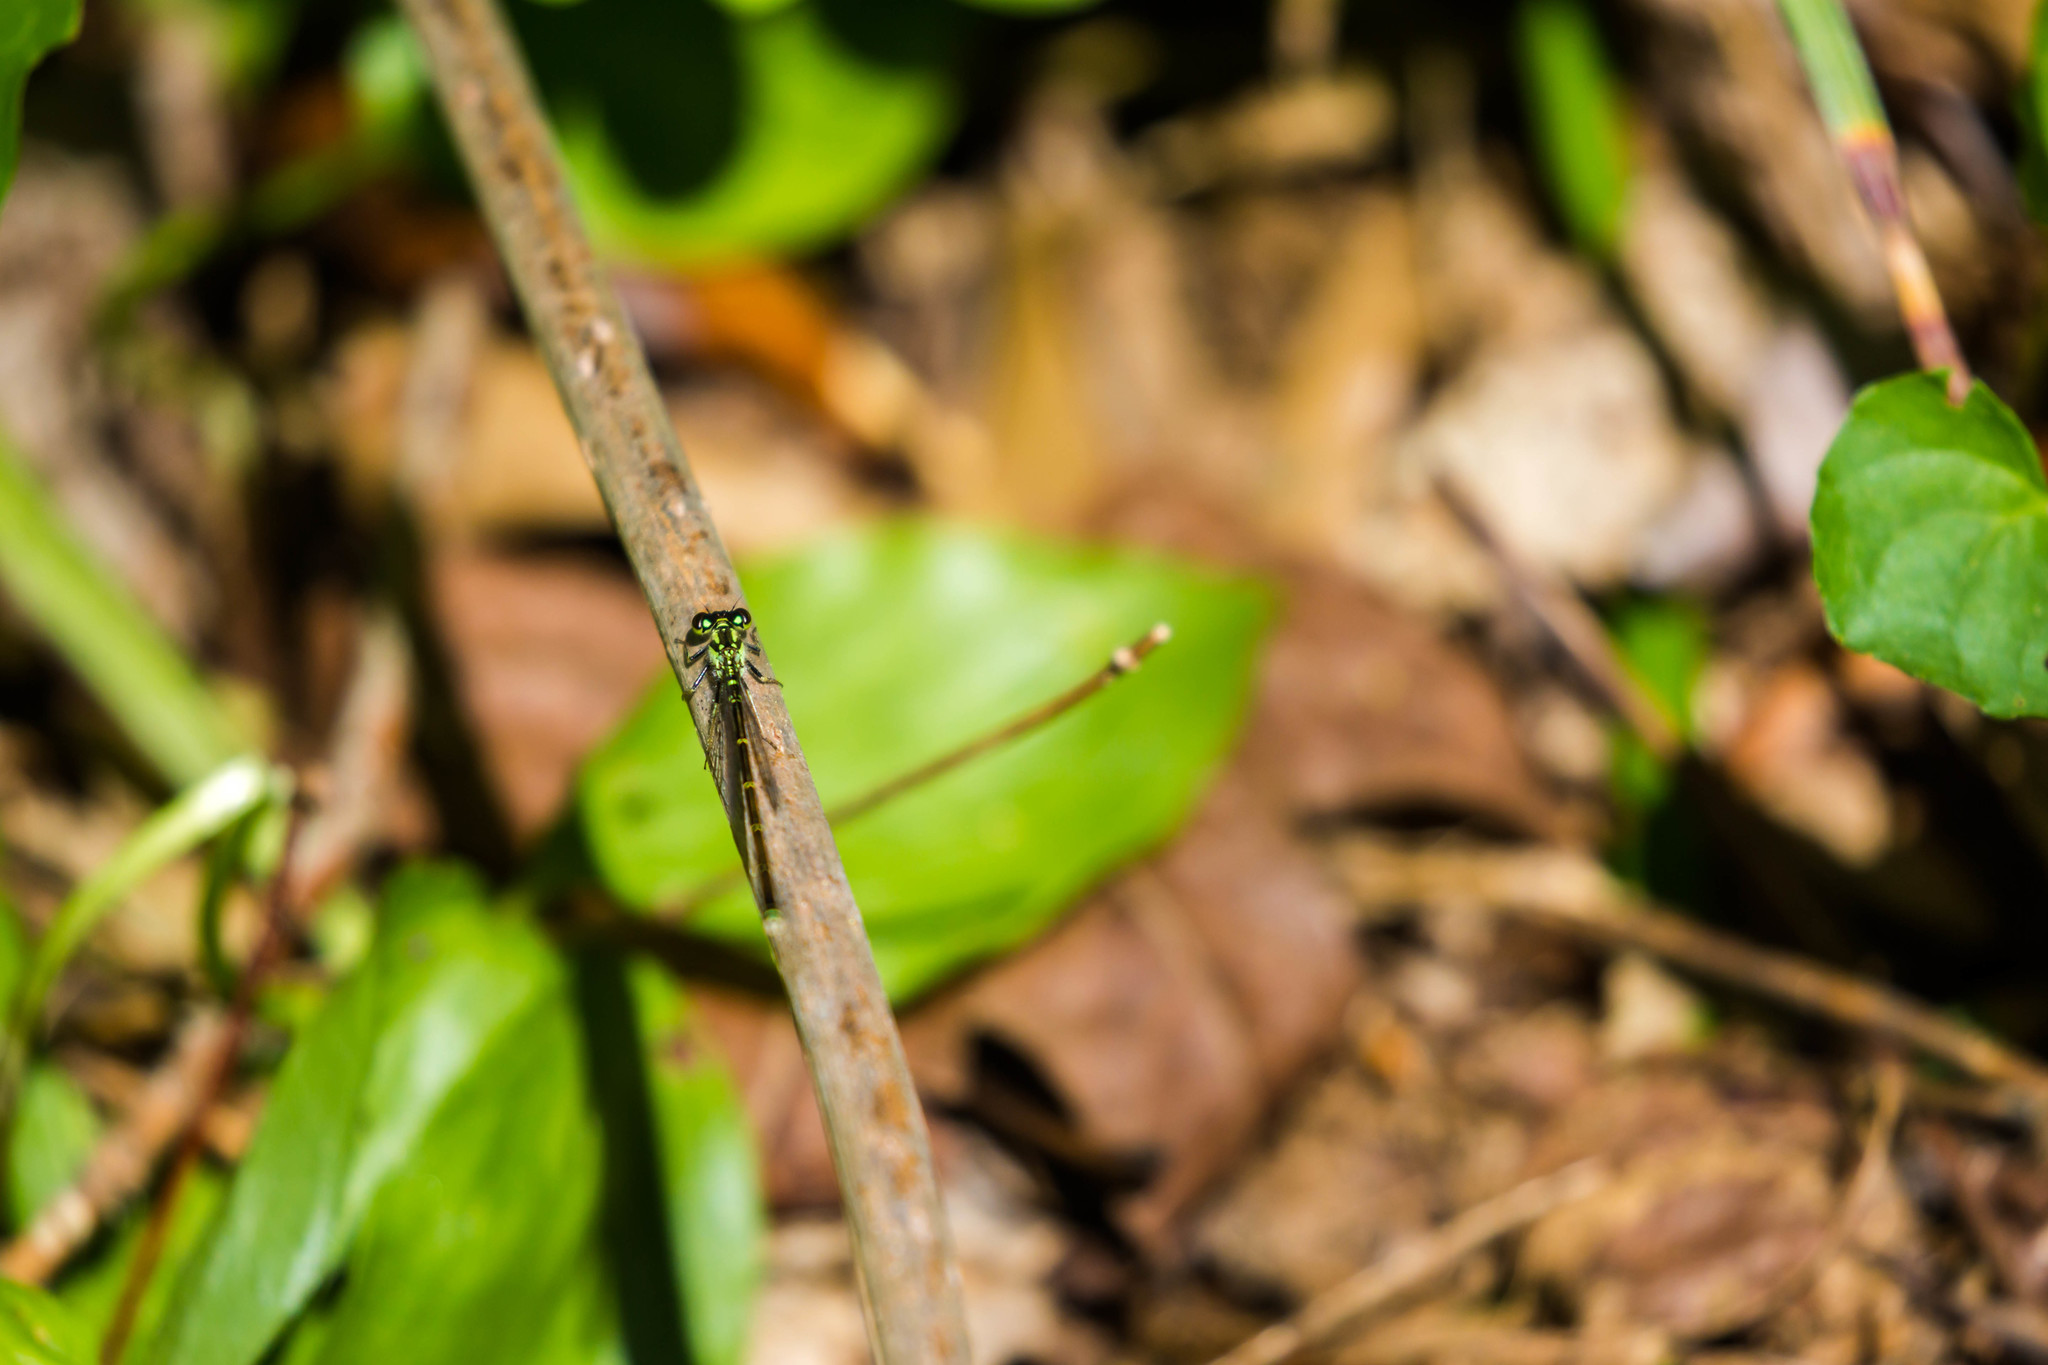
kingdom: Animalia
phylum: Arthropoda
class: Insecta
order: Odonata
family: Coenagrionidae
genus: Ischnura
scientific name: Ischnura posita
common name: Fragile forktail
